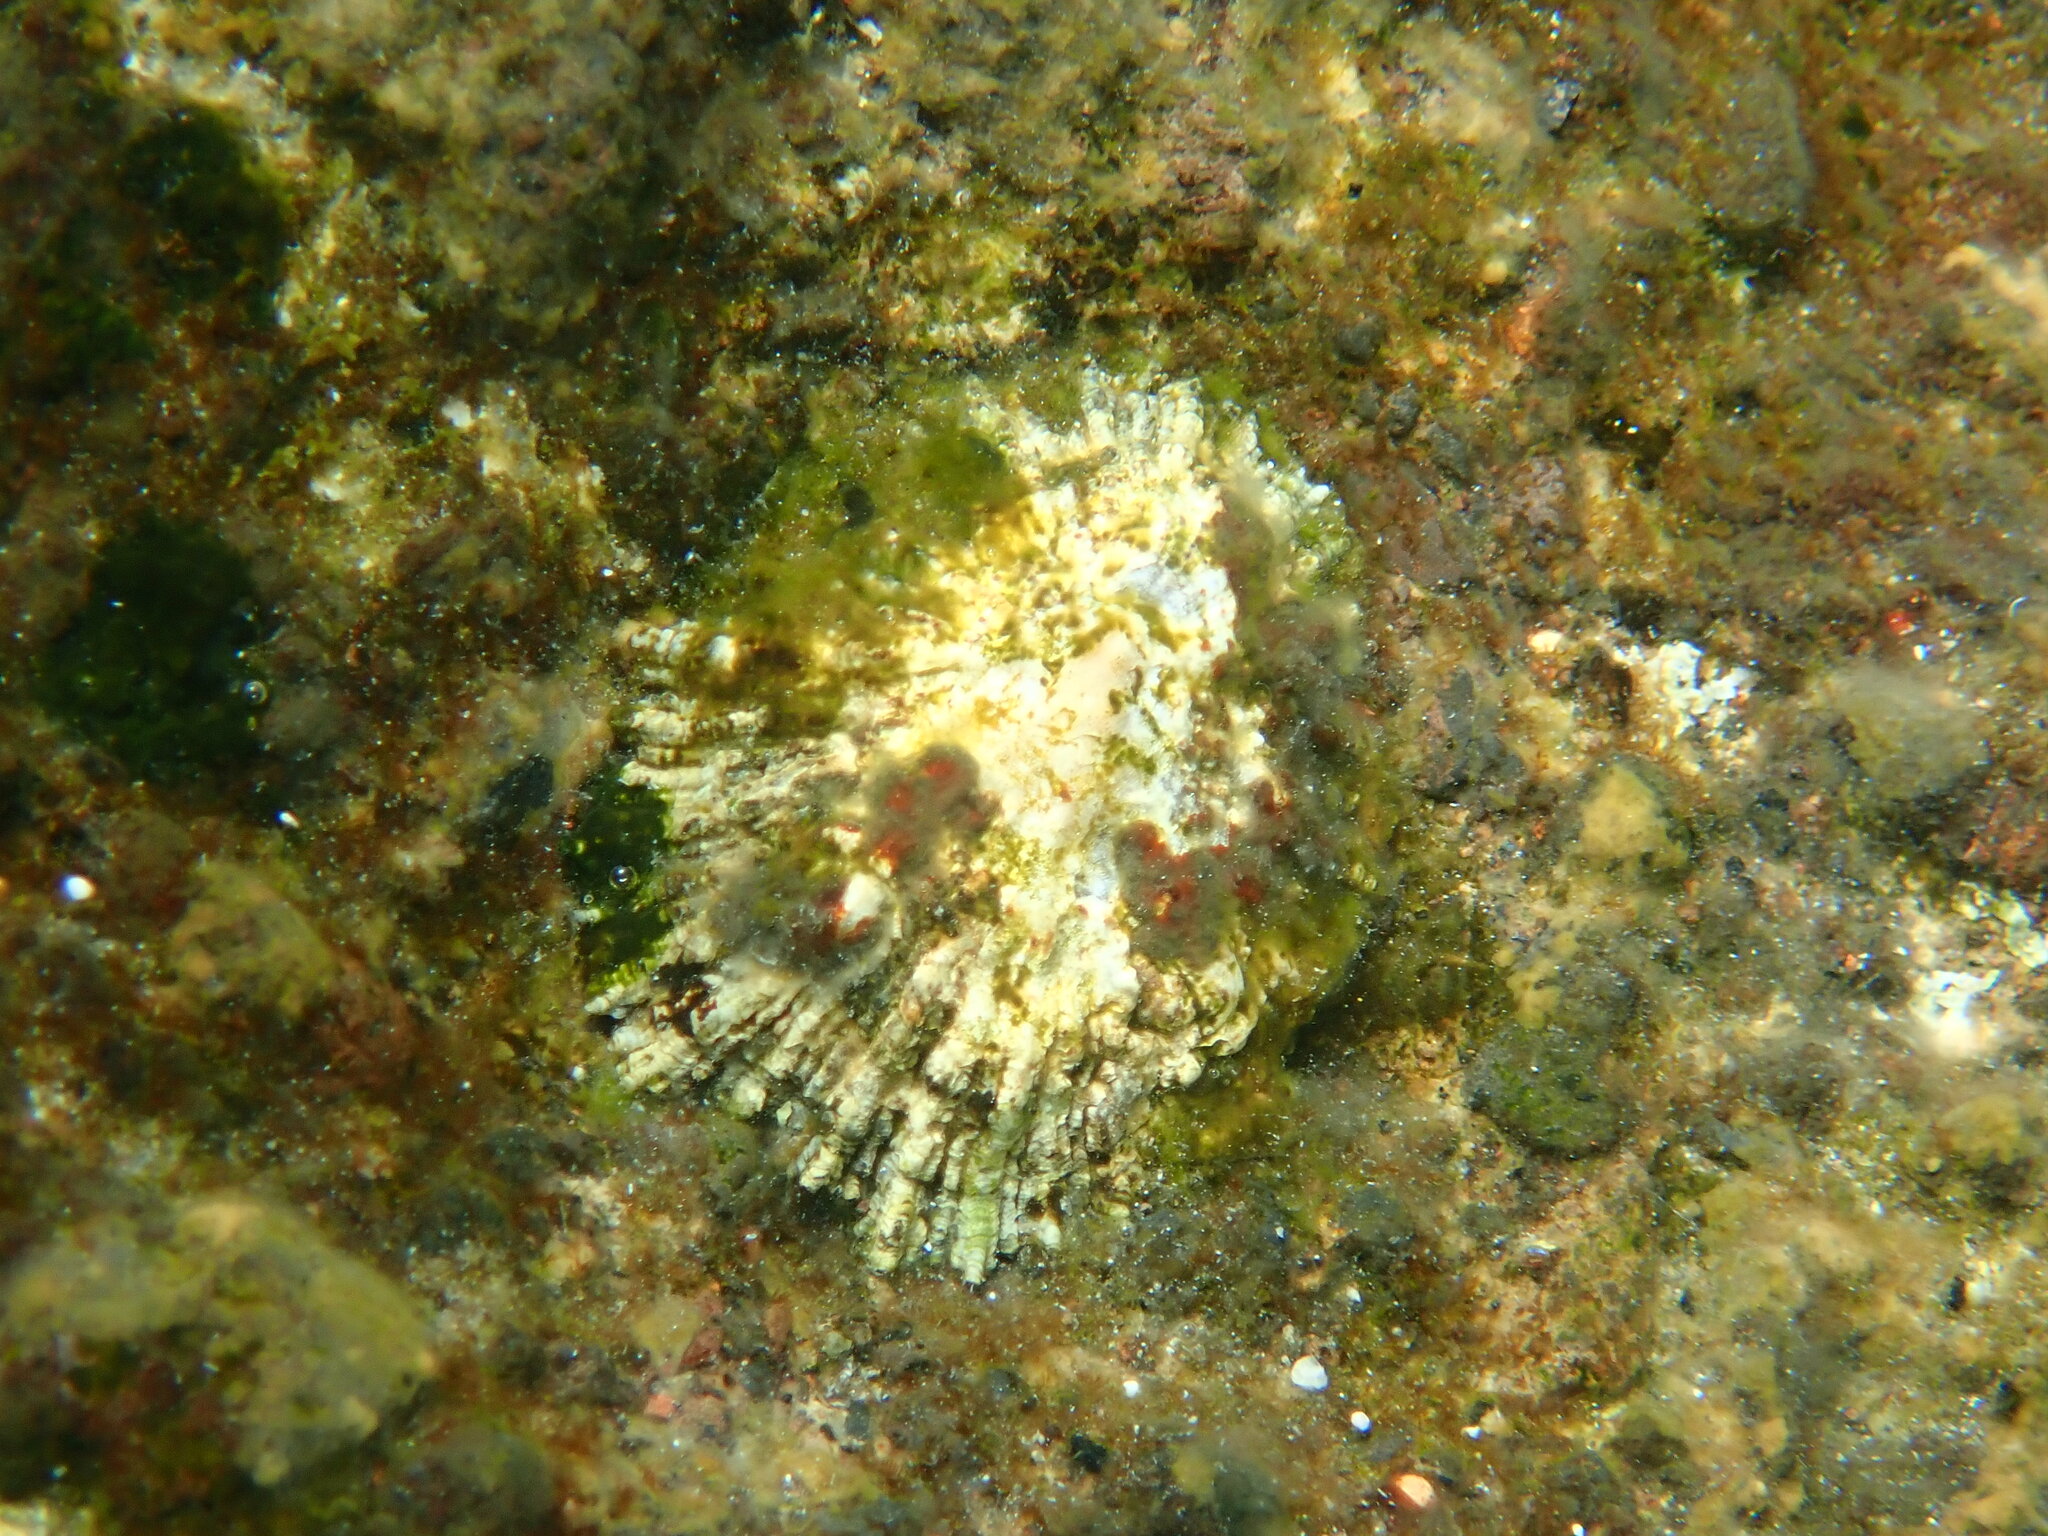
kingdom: Animalia
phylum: Mollusca
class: Gastropoda
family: Patellidae
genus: Patella
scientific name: Patella aspera
